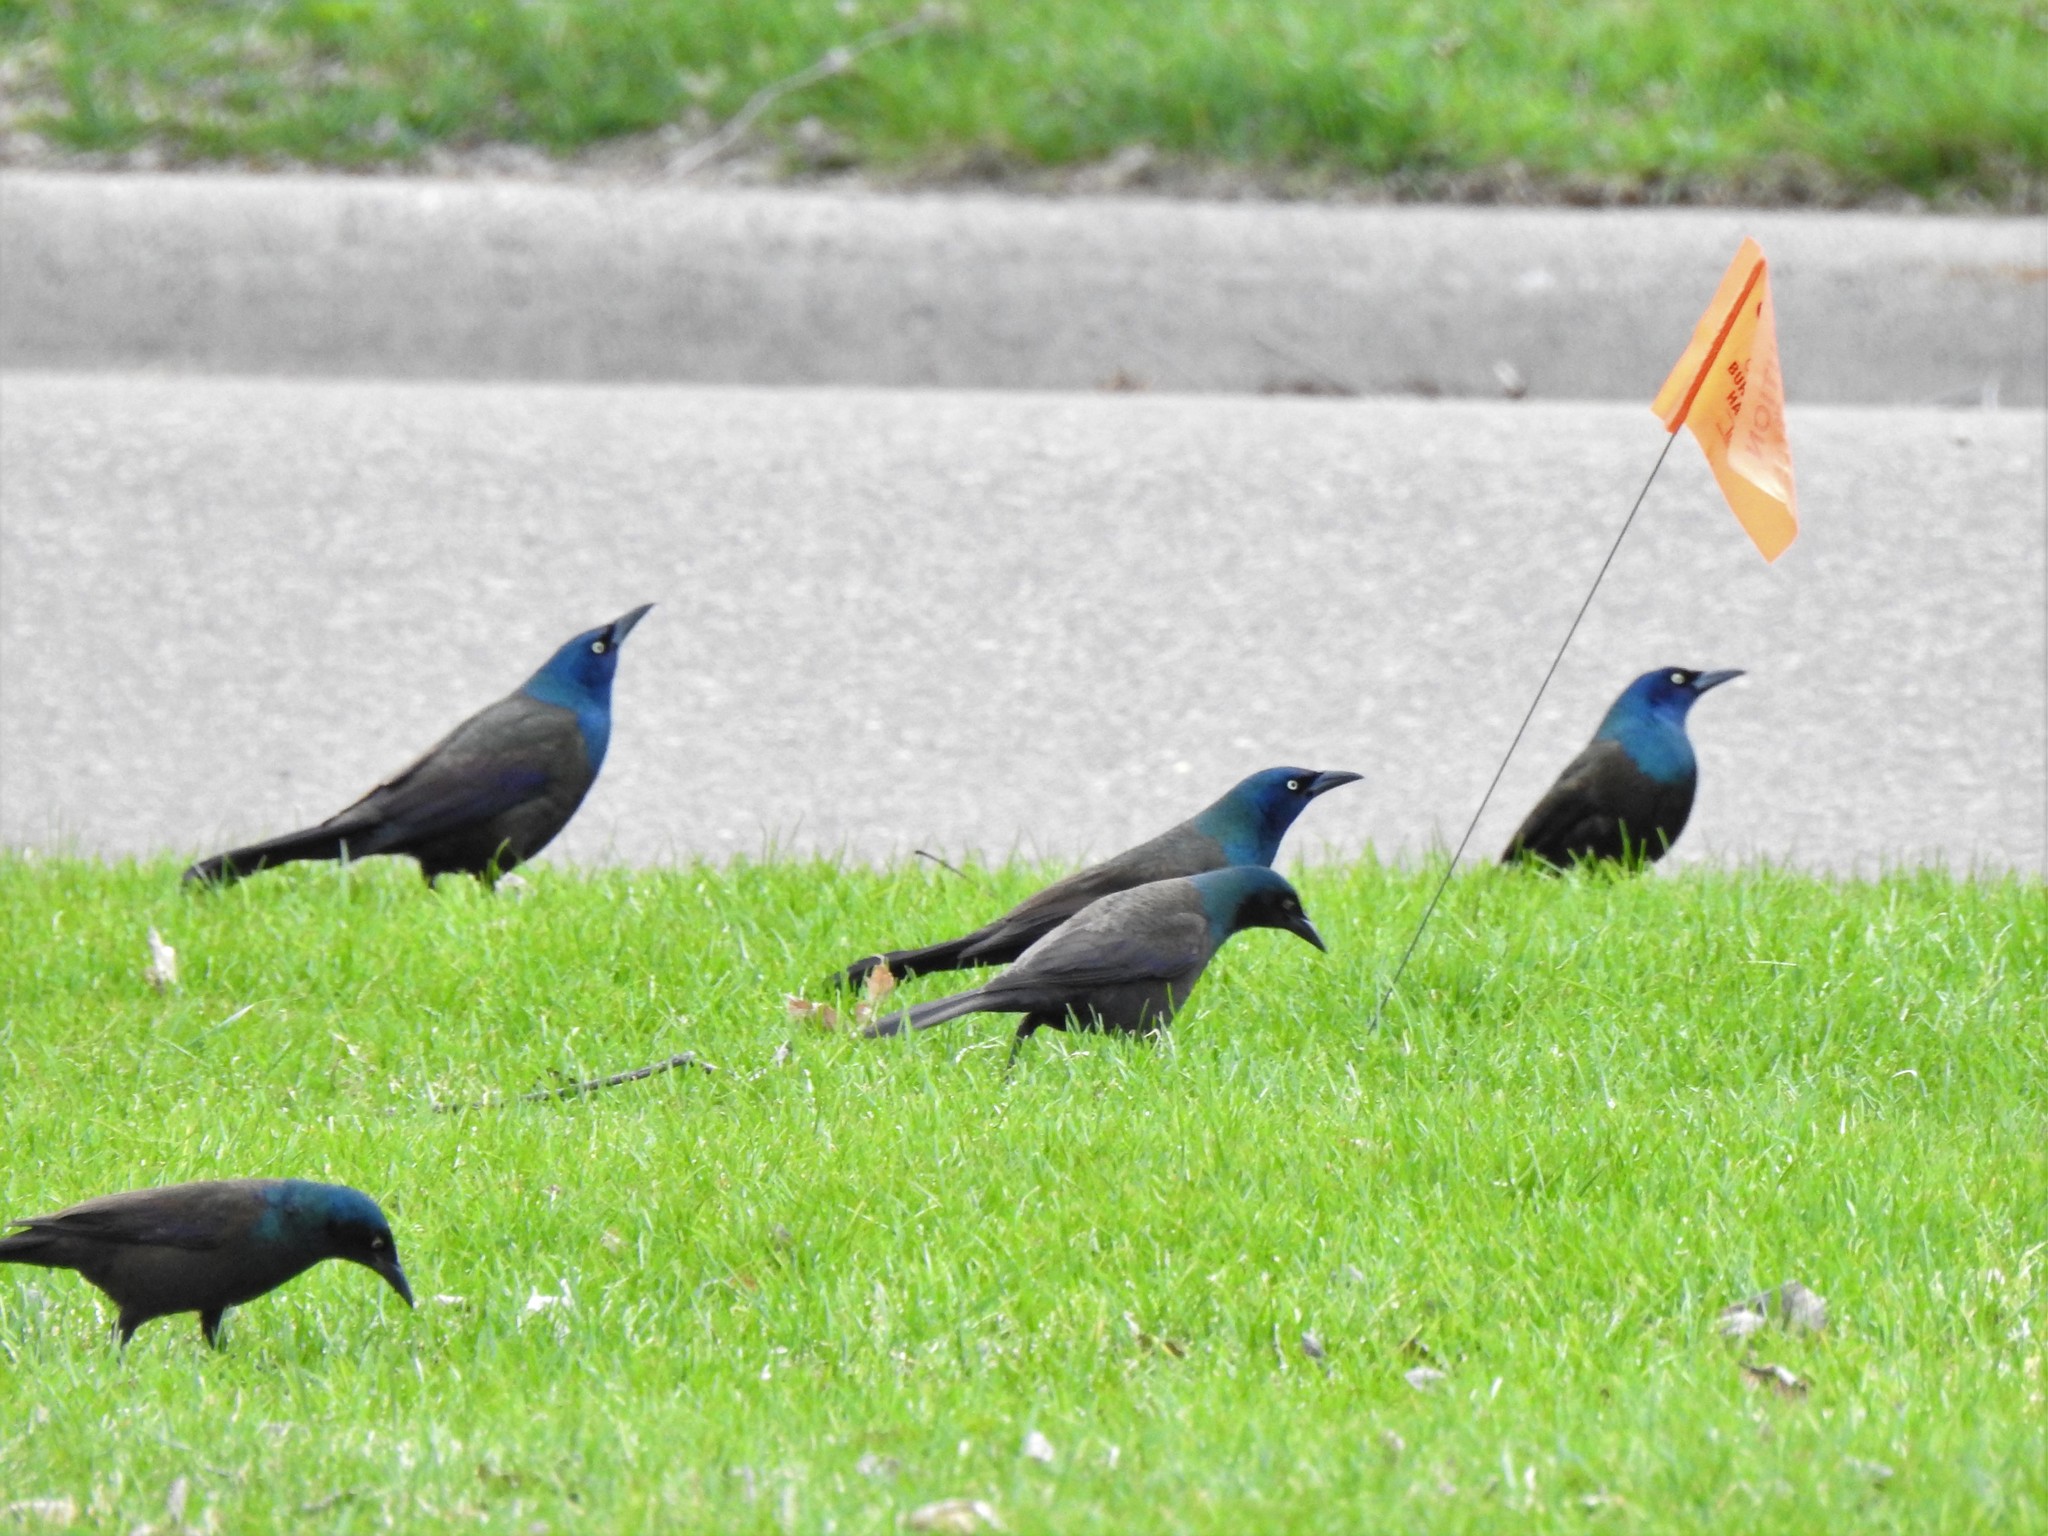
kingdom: Animalia
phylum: Chordata
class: Aves
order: Passeriformes
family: Icteridae
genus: Quiscalus
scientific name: Quiscalus quiscula
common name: Common grackle
